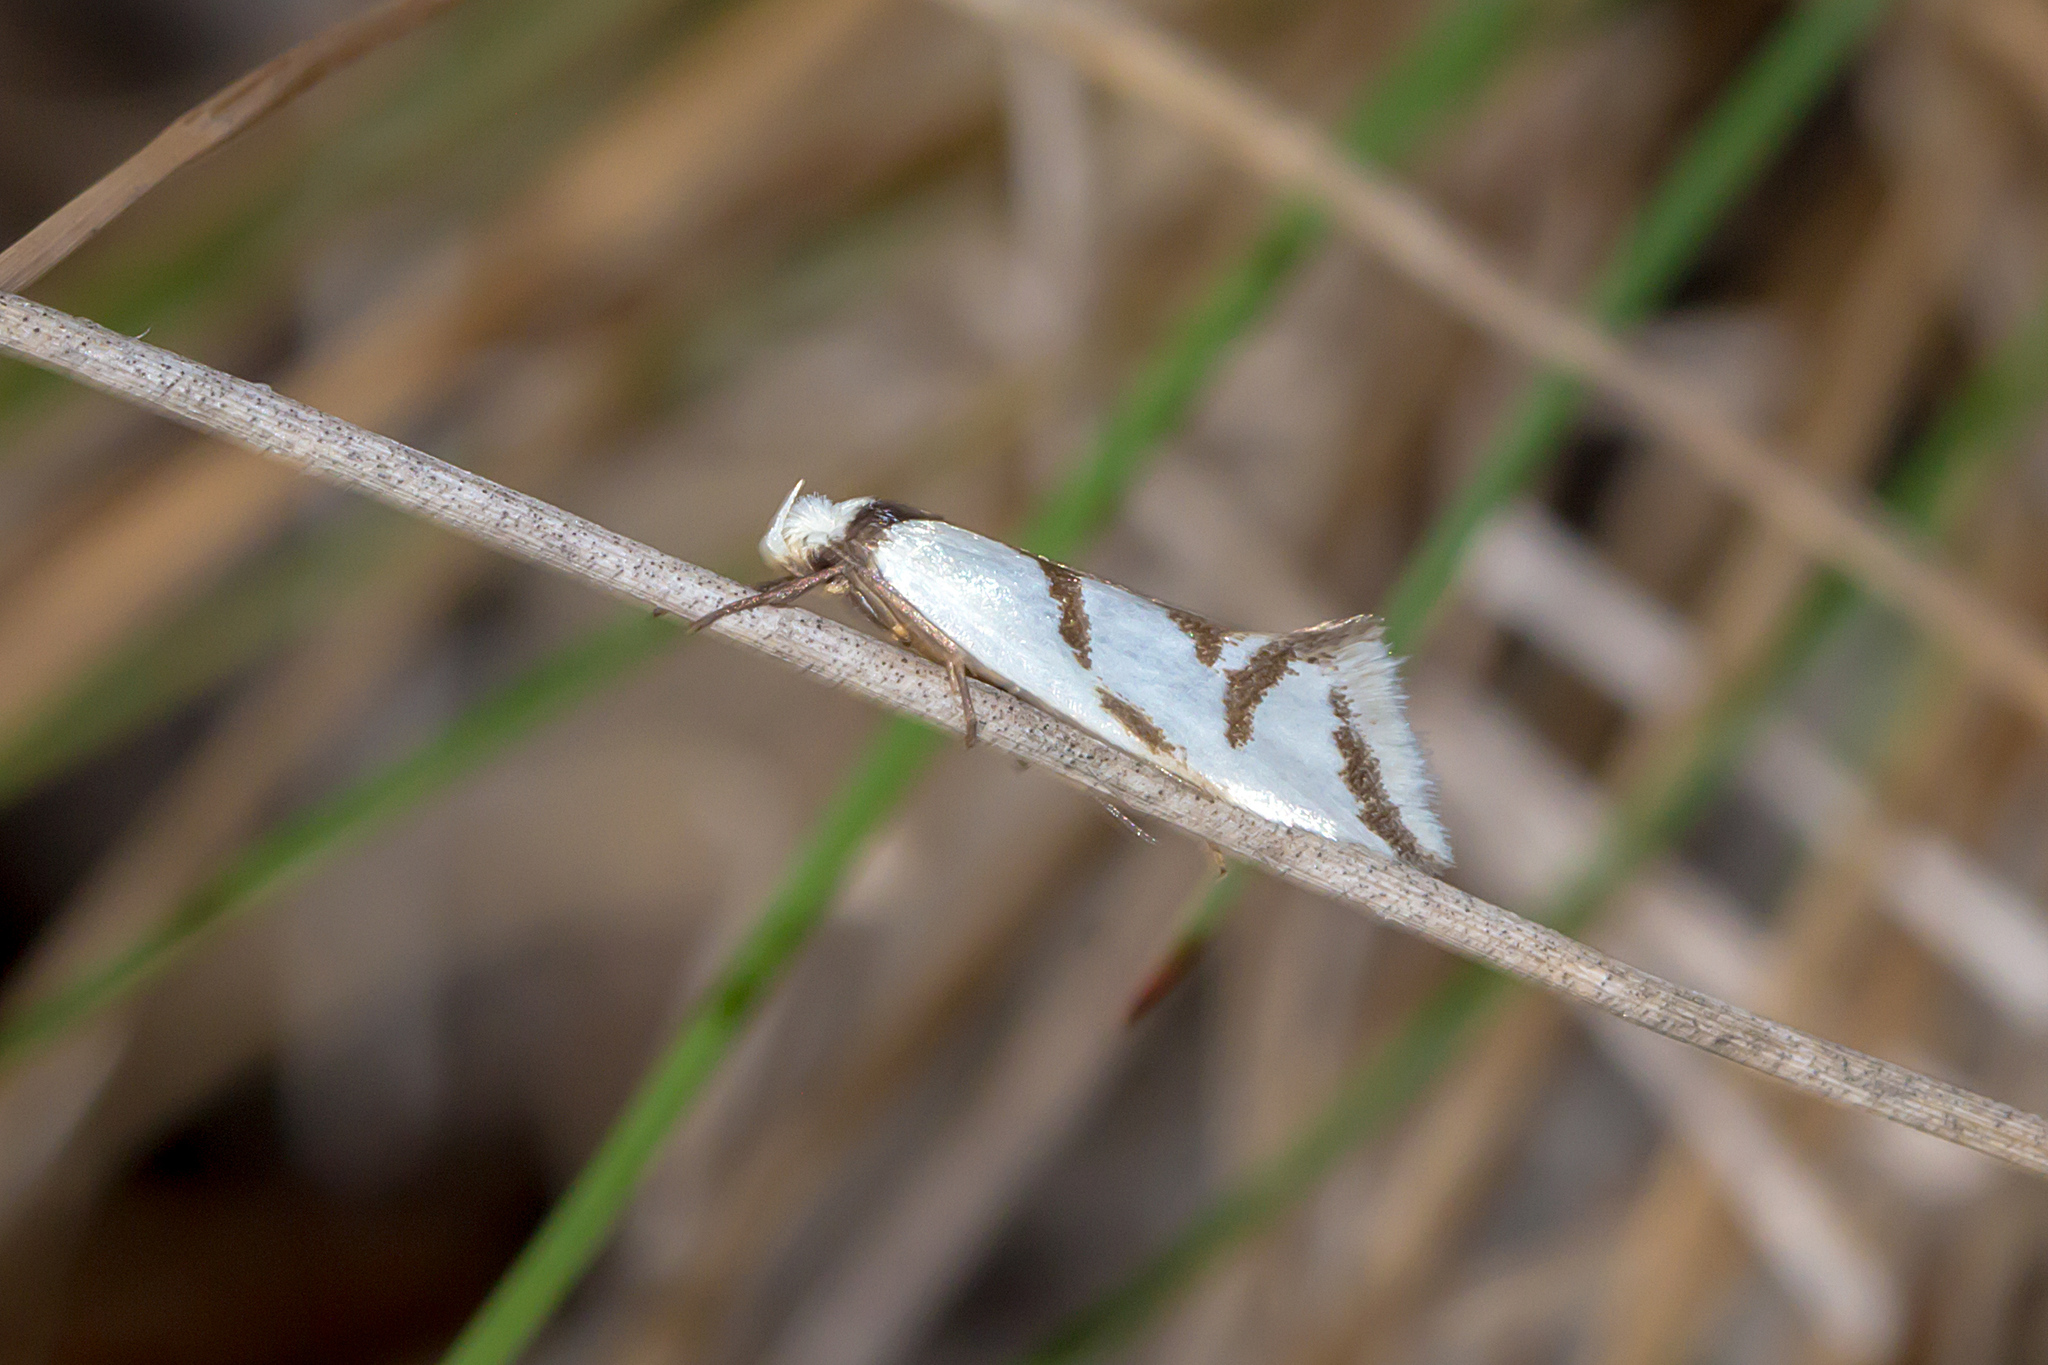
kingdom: Animalia
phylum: Arthropoda
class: Insecta
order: Lepidoptera
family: Oecophoridae
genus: Ocystola
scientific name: Ocystola paulinella
